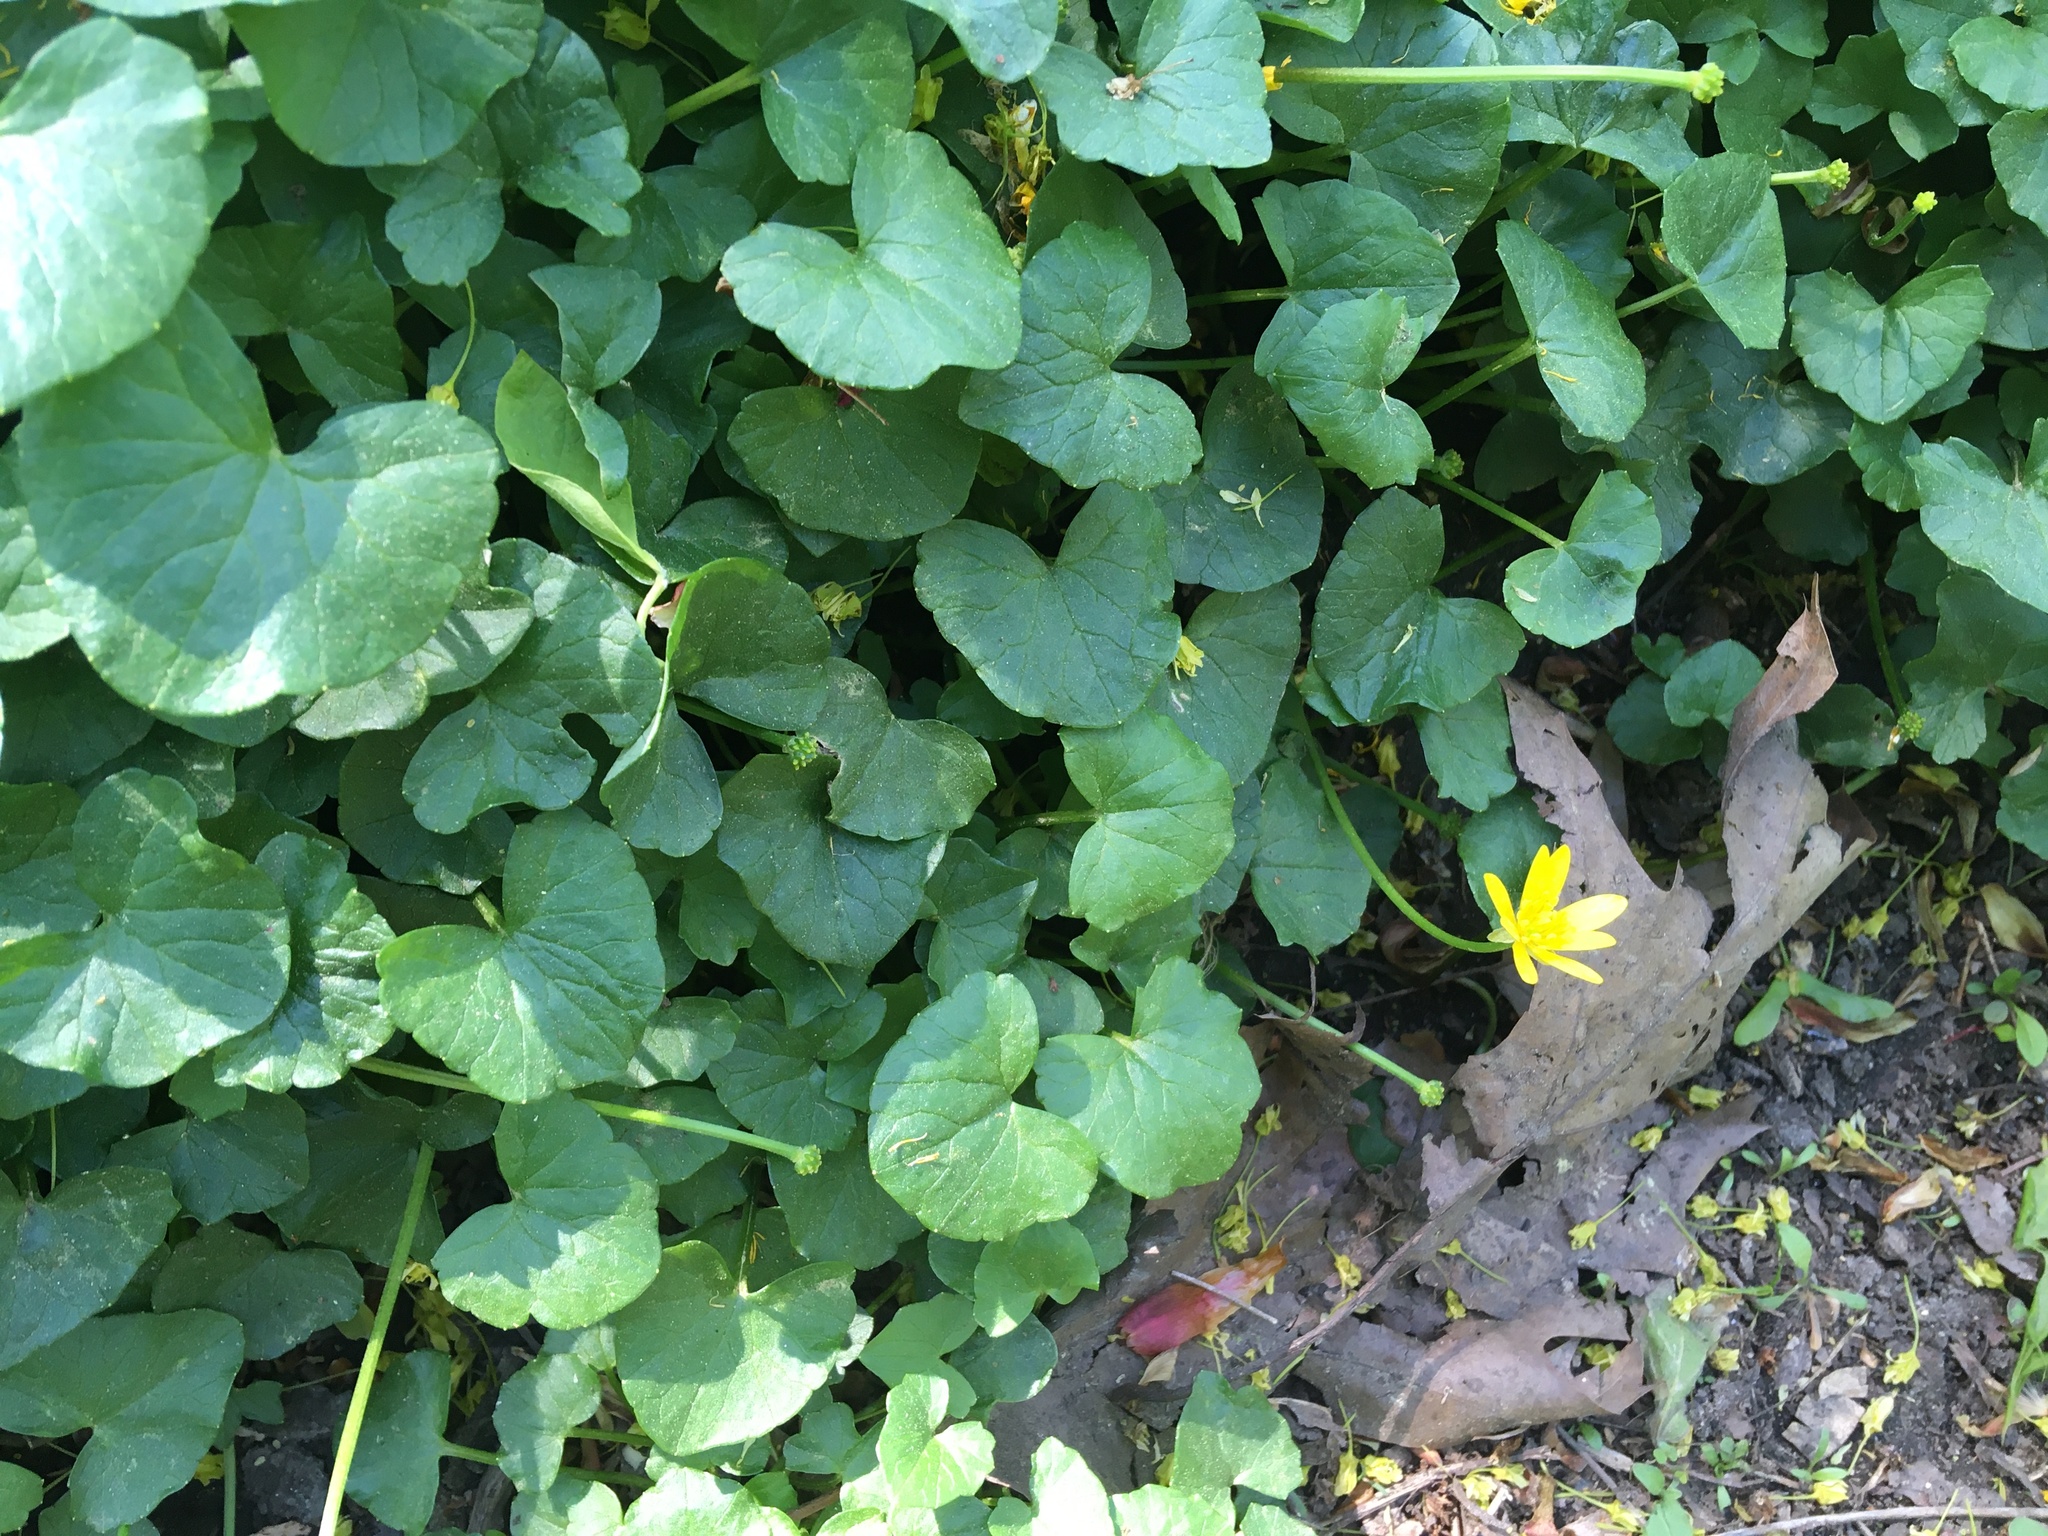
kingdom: Plantae
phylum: Tracheophyta
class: Magnoliopsida
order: Ranunculales
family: Ranunculaceae
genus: Ficaria
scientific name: Ficaria verna
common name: Lesser celandine
